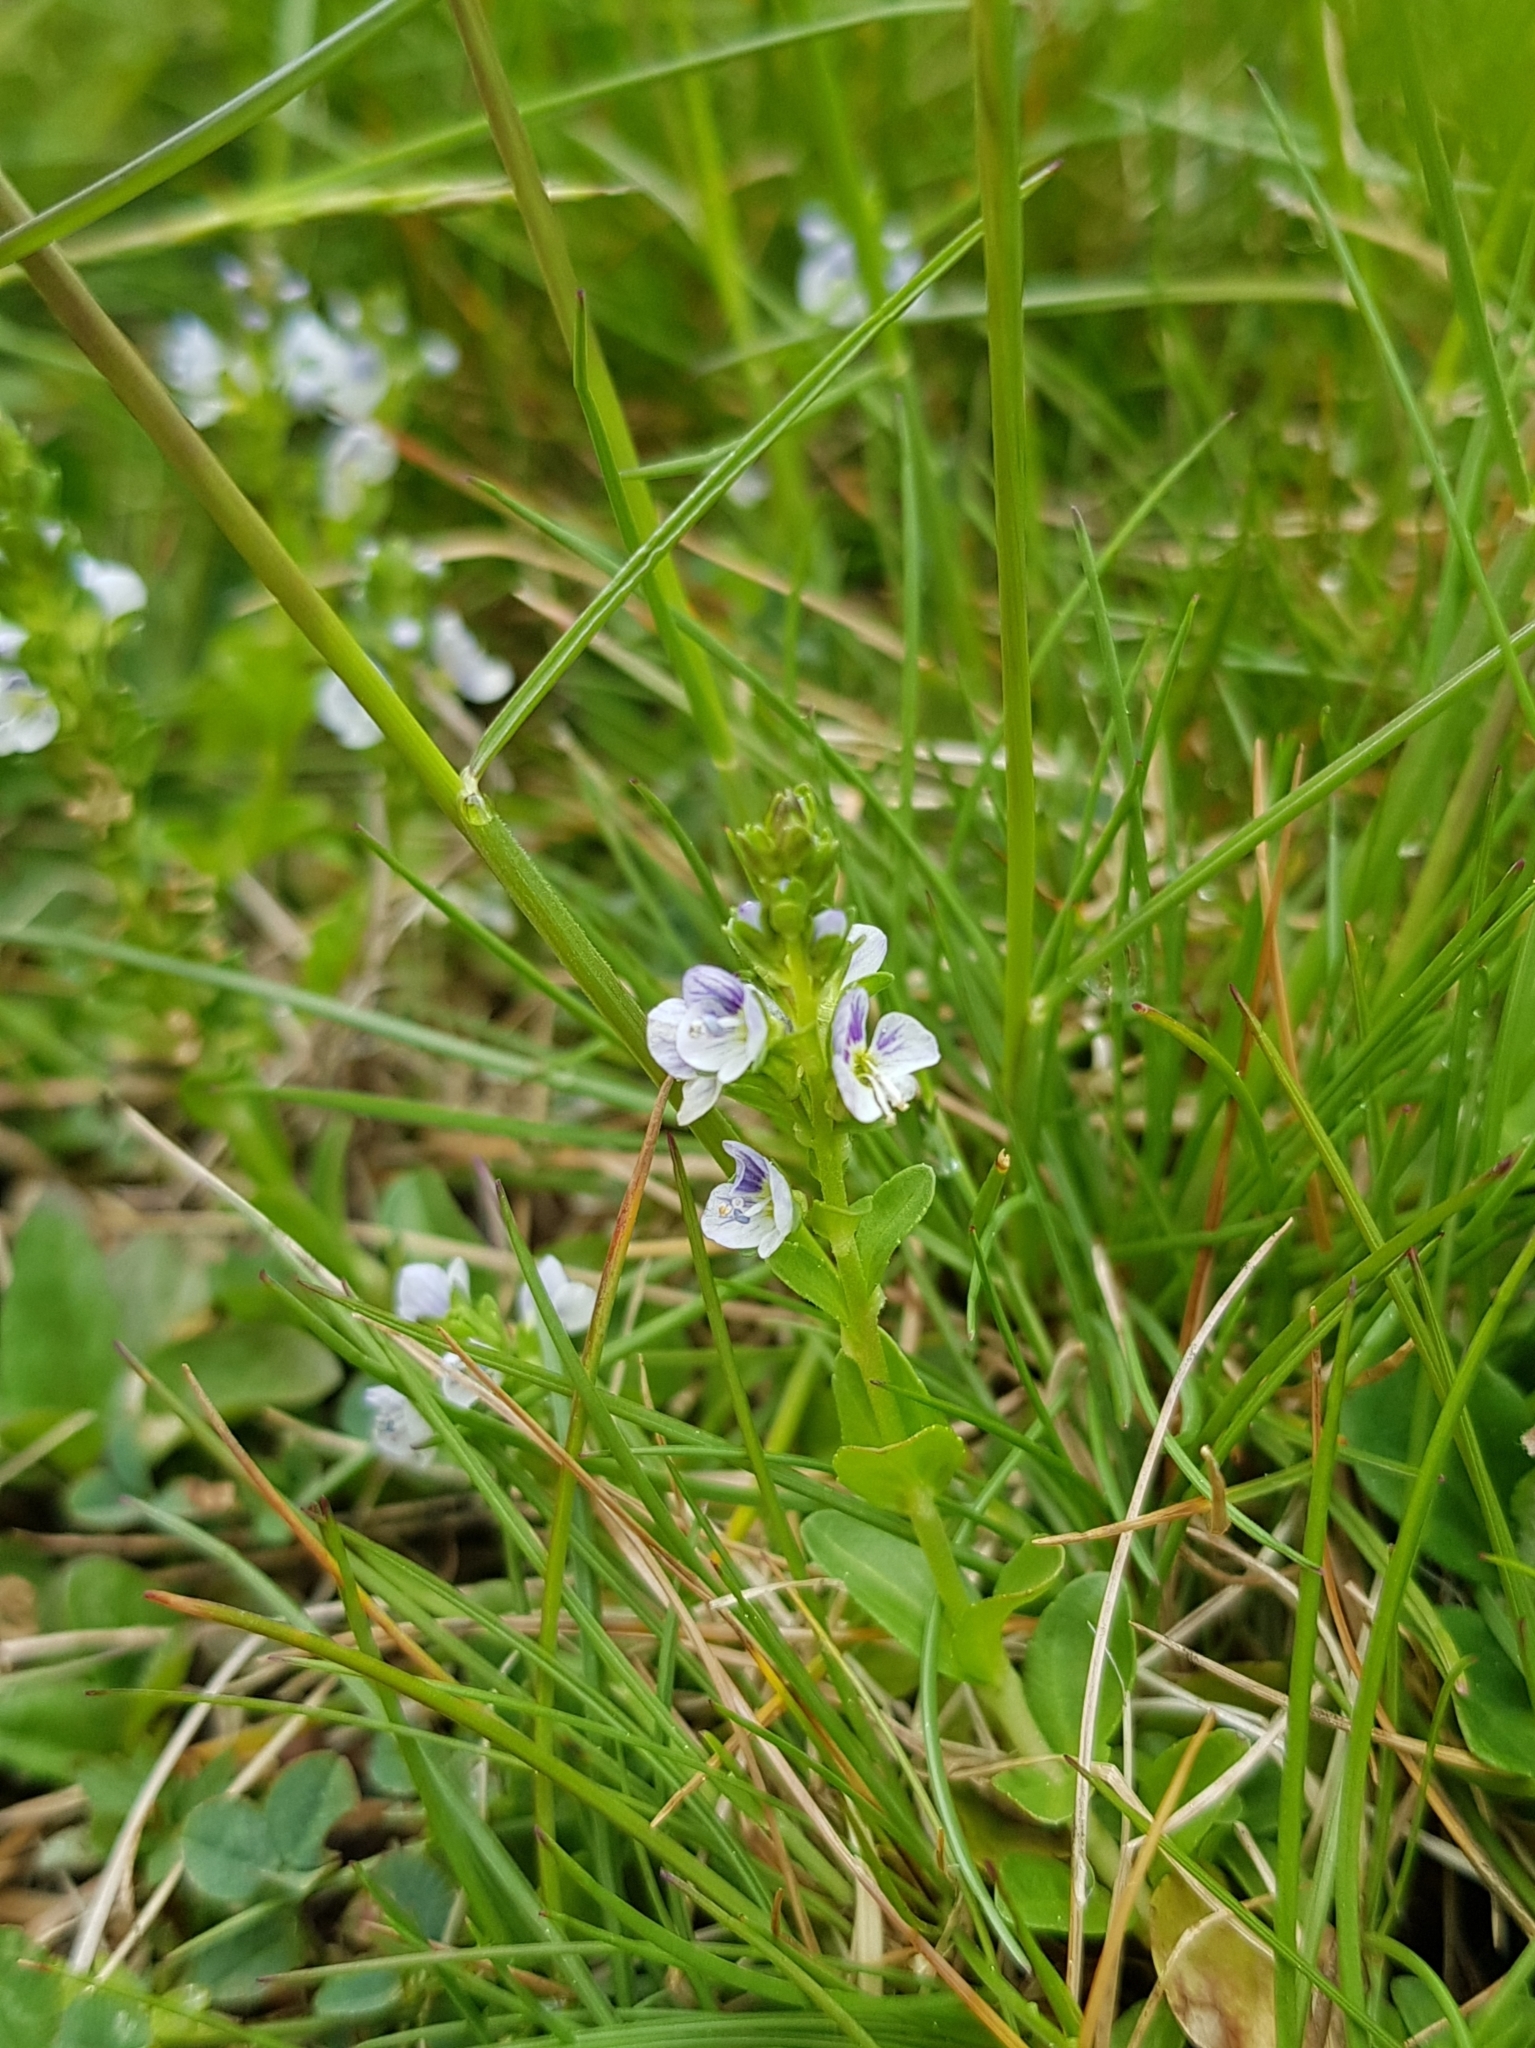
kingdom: Plantae
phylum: Tracheophyta
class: Magnoliopsida
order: Lamiales
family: Plantaginaceae
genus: Veronica
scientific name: Veronica serpyllifolia
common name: Thyme-leaved speedwell
